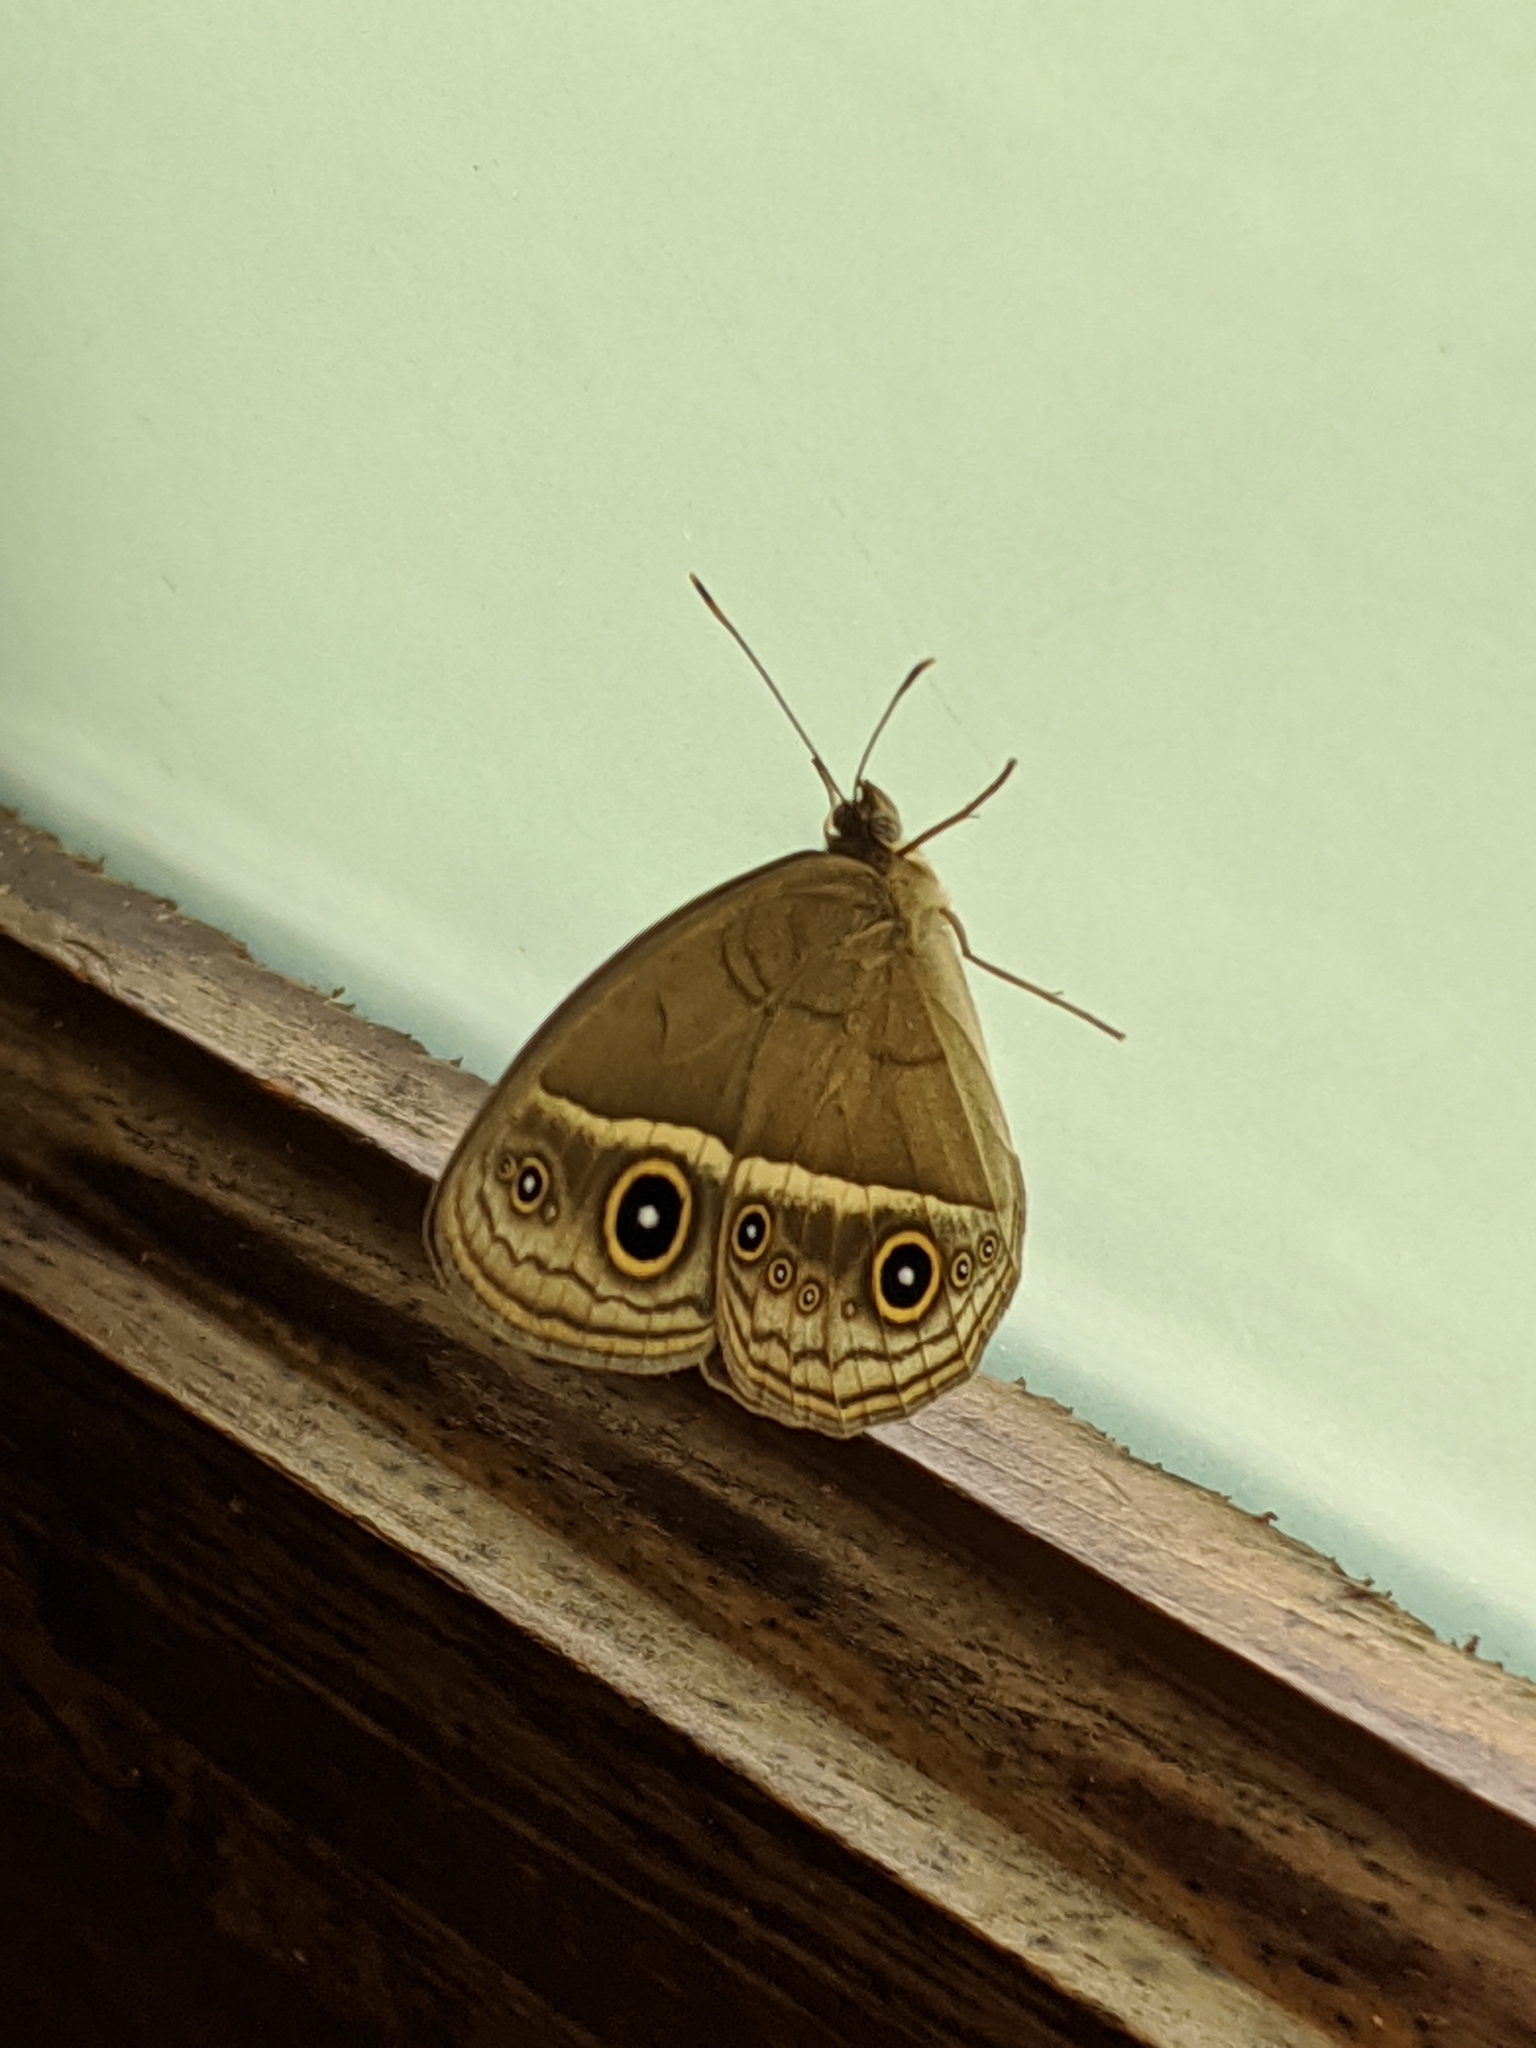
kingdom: Animalia
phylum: Arthropoda
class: Insecta
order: Lepidoptera
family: Nymphalidae
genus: Mycalesis
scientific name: Mycalesis gotama
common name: Chinese bushbrown
